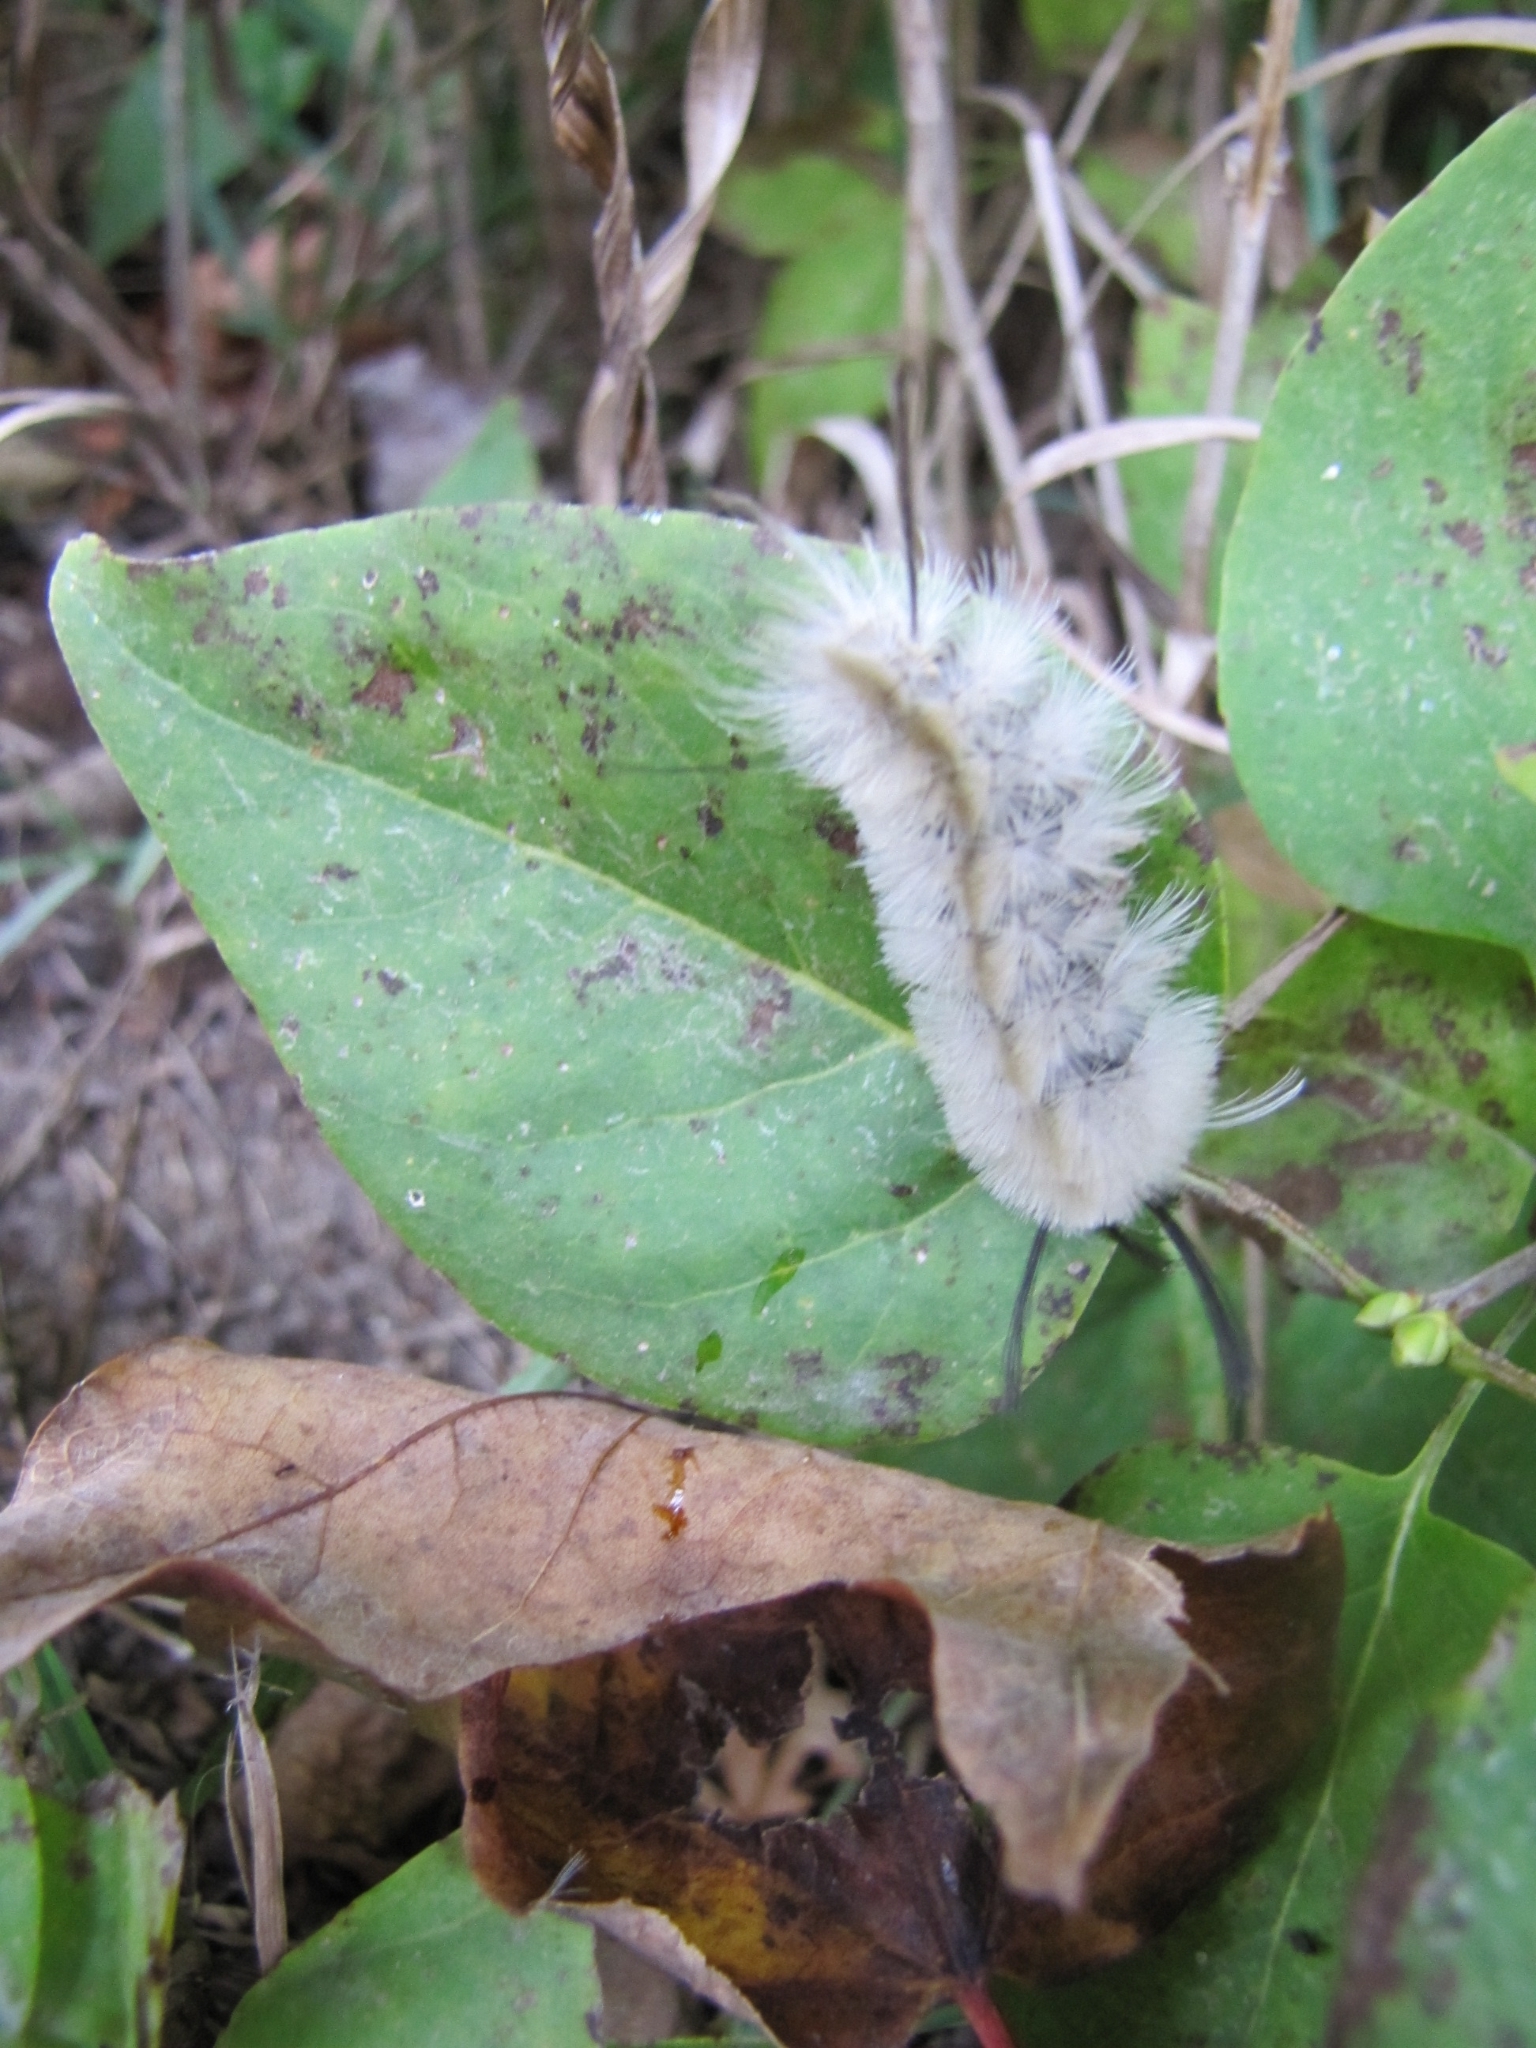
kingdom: Animalia
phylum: Arthropoda
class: Insecta
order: Lepidoptera
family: Erebidae
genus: Halysidota
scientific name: Halysidota tessellaris
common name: Banded tussock moth
